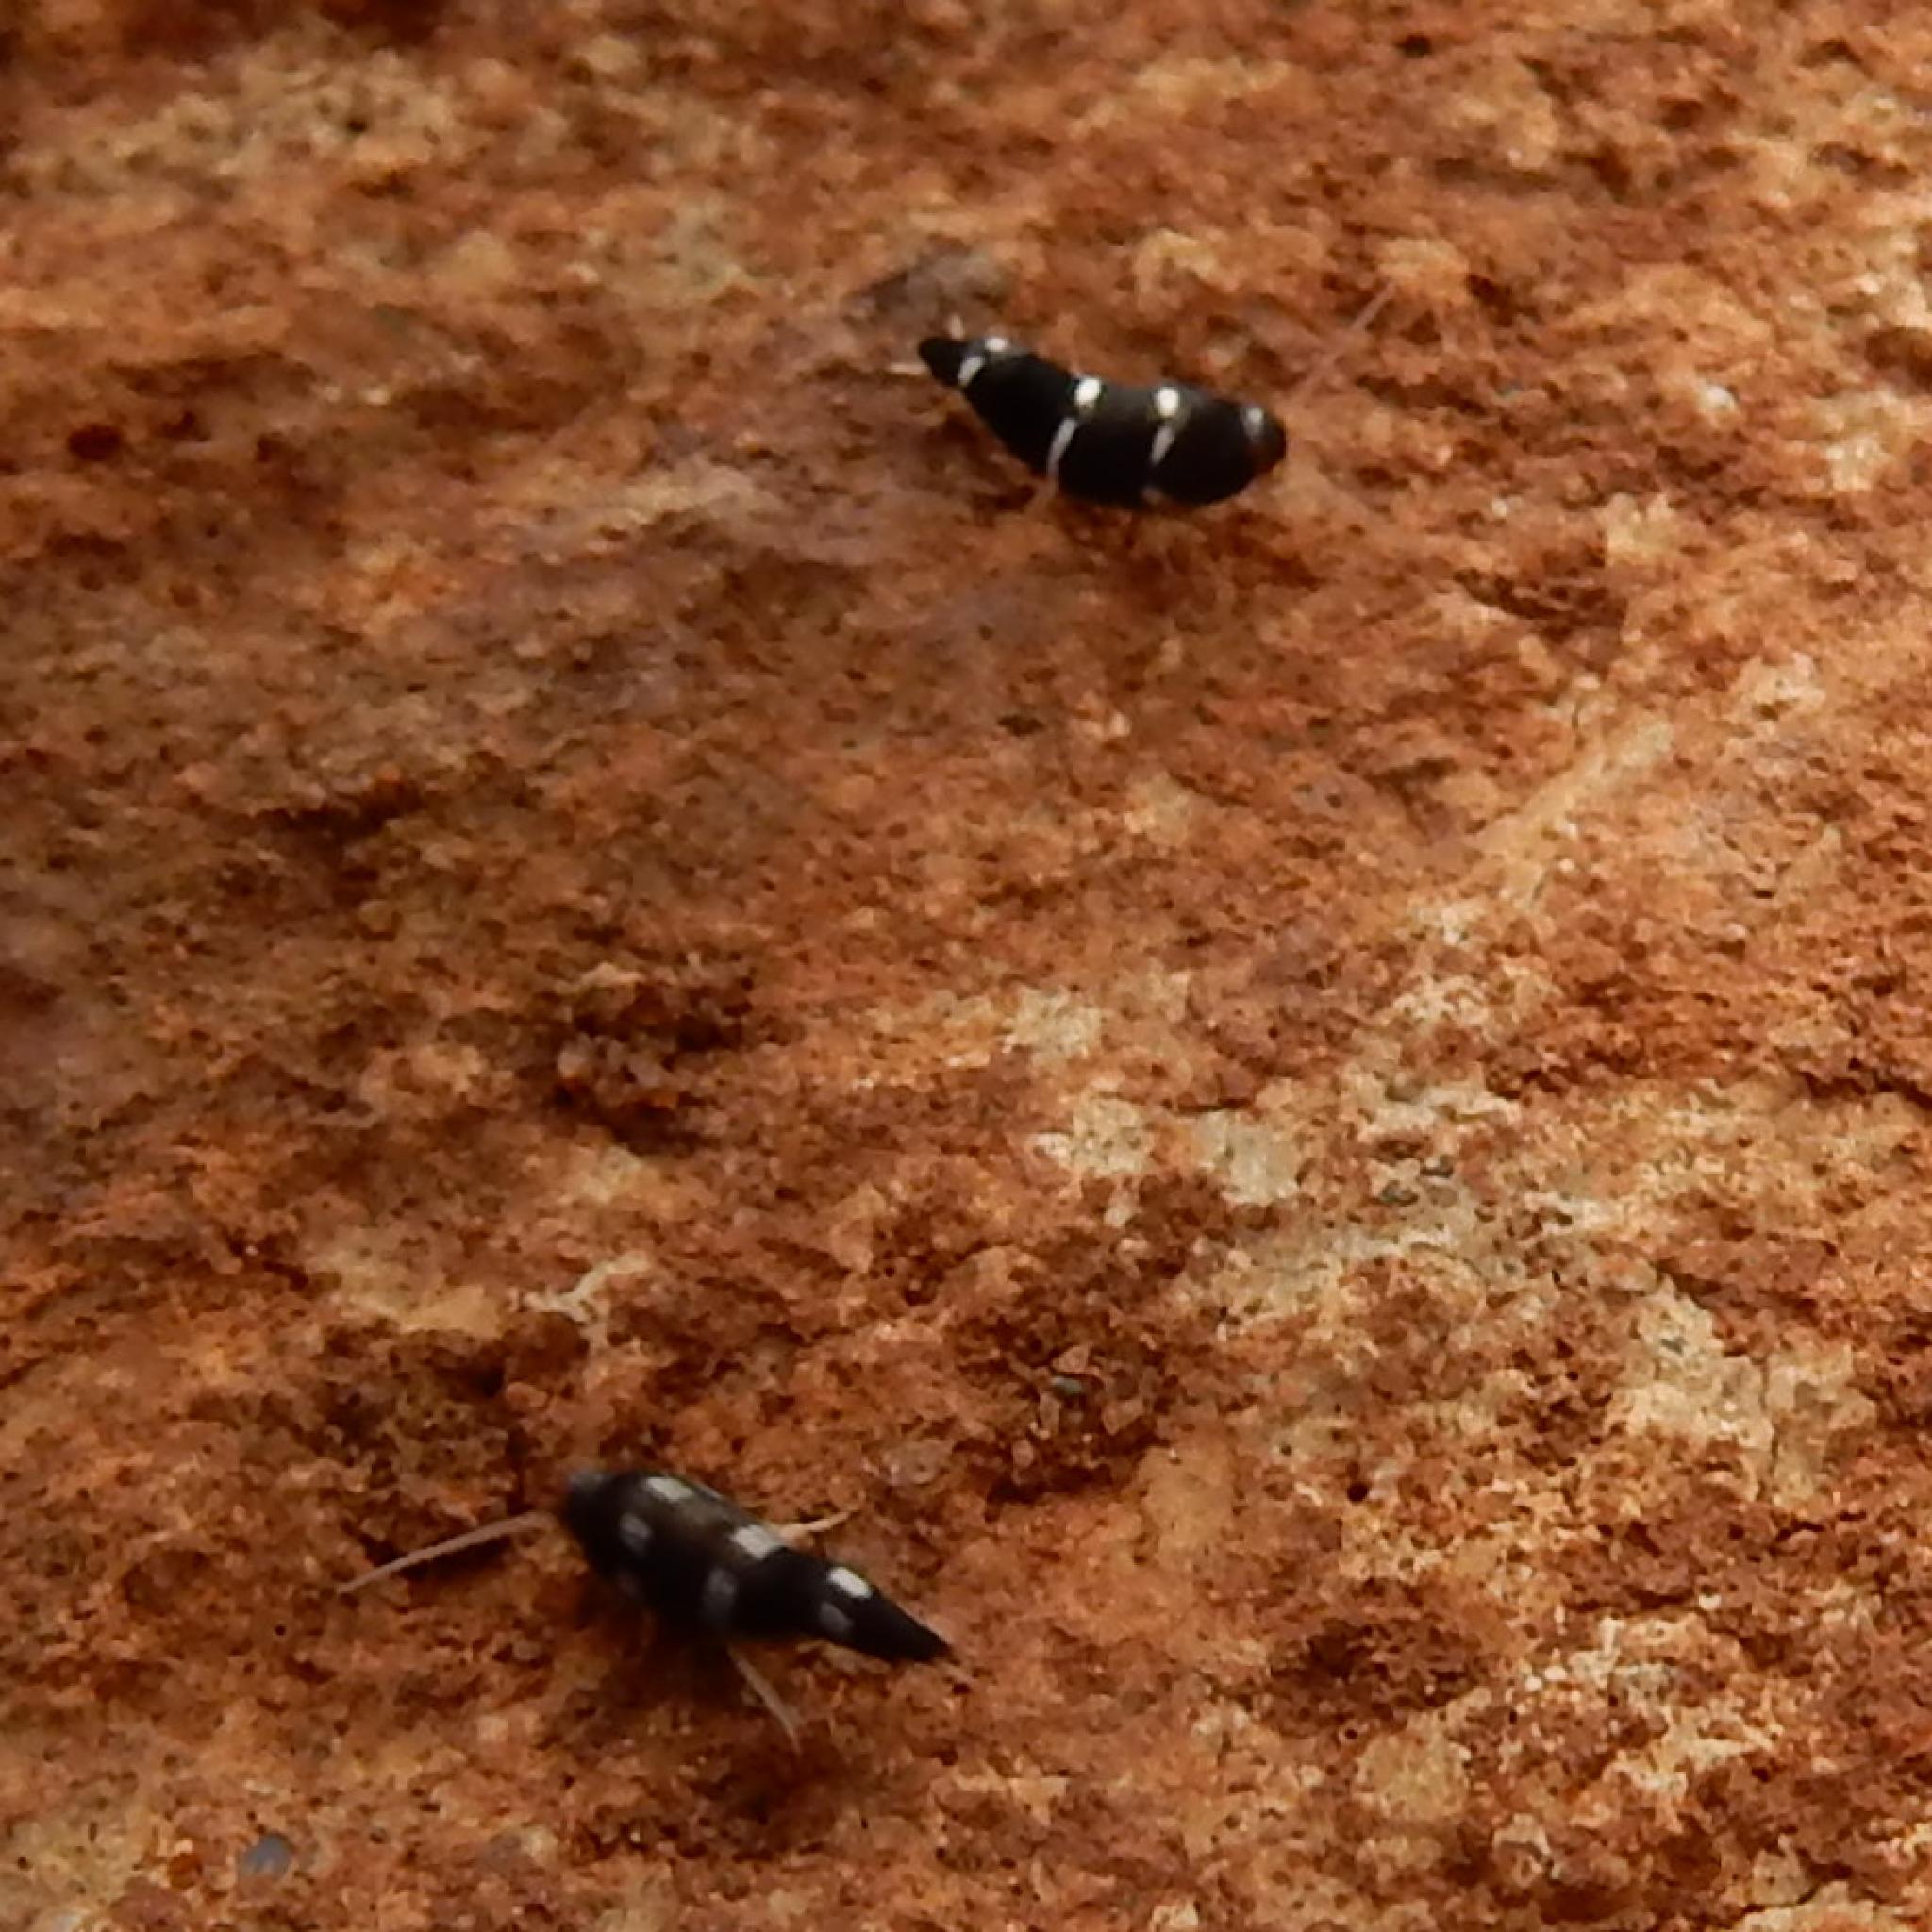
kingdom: Animalia
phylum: Arthropoda
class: Insecta
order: Zygentoma
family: Lepismatidae
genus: Xenolepisma
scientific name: Xenolepisma
